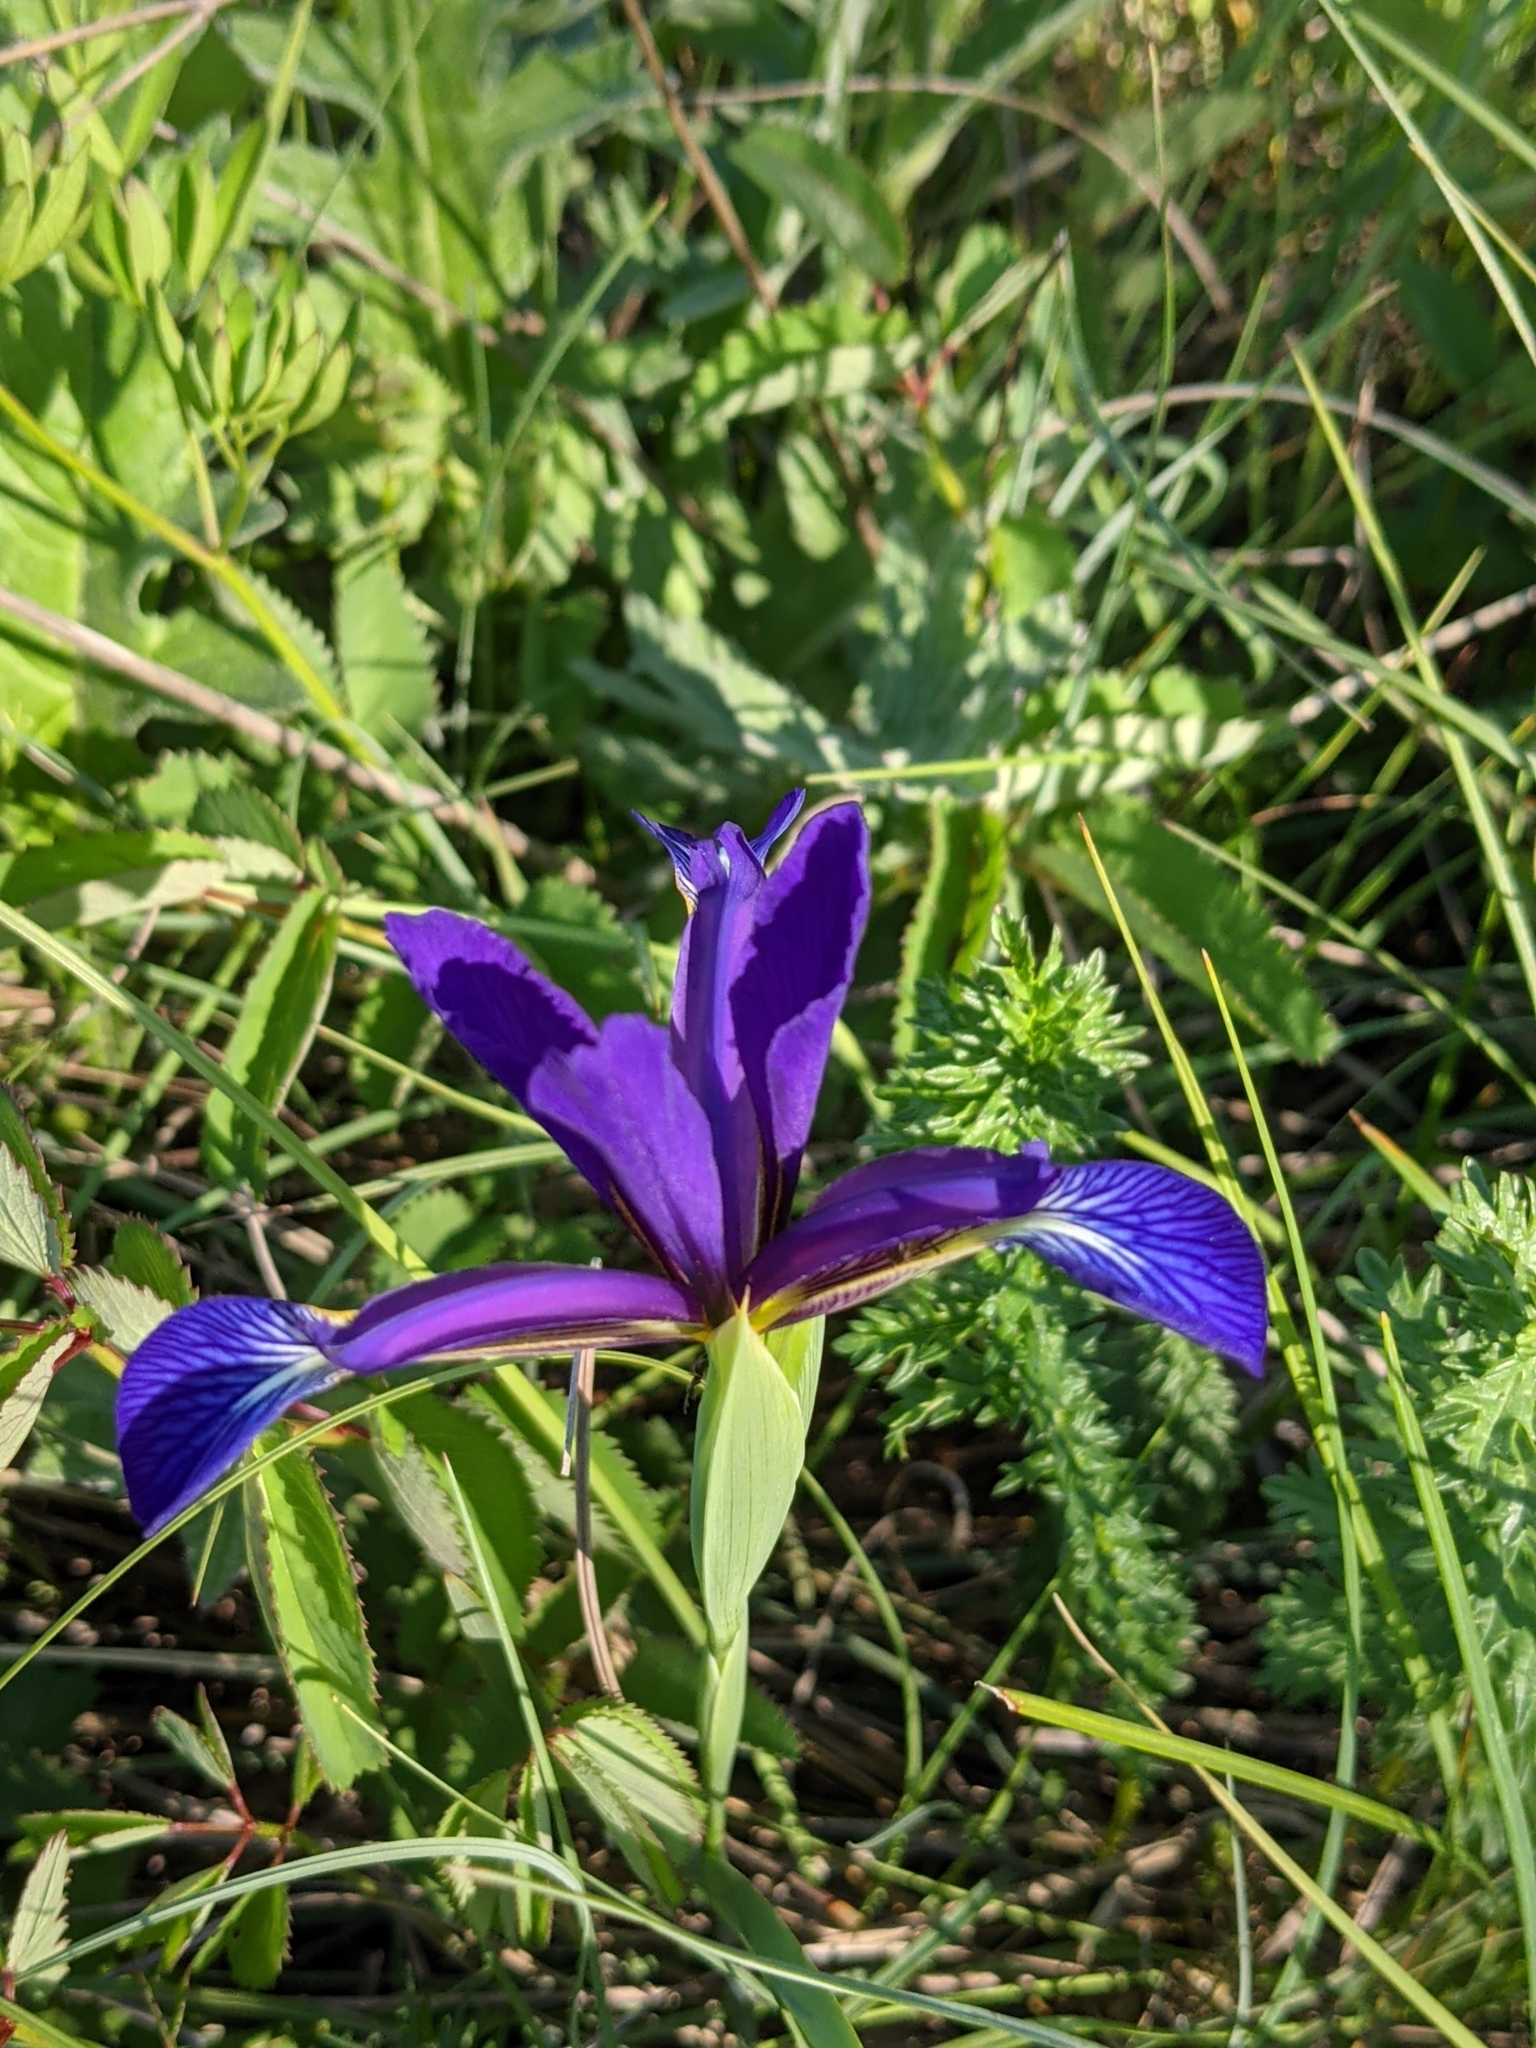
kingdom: Plantae
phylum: Tracheophyta
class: Liliopsida
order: Asparagales
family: Iridaceae
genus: Iris
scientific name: Iris reichenbachiana
